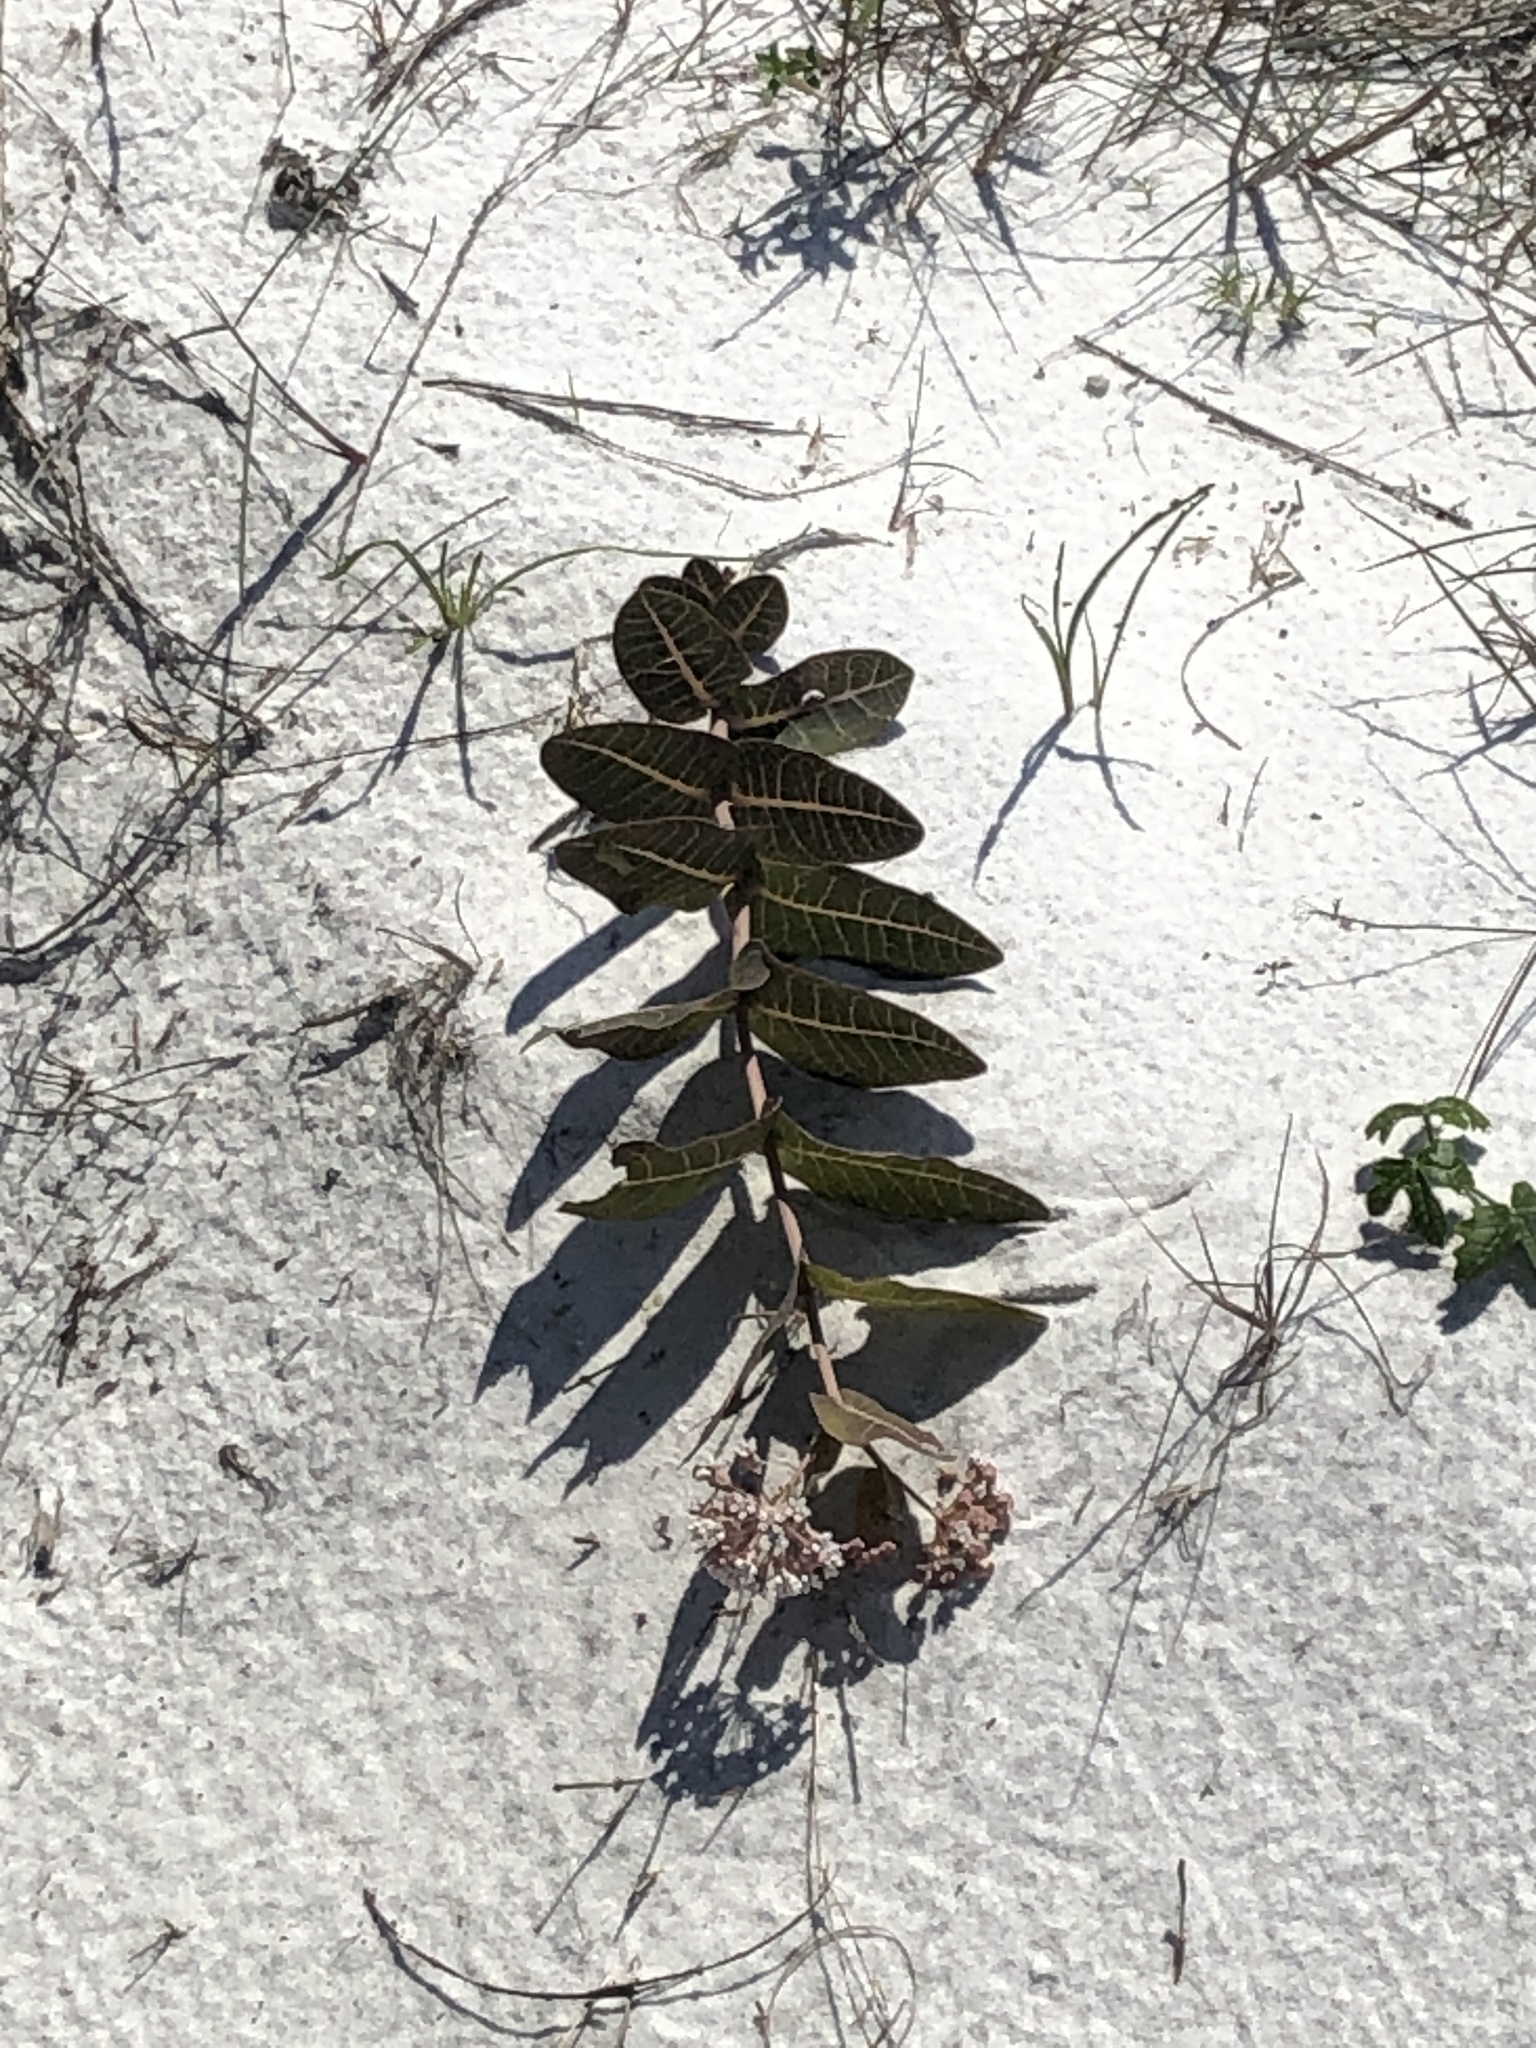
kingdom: Plantae
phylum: Tracheophyta
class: Magnoliopsida
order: Gentianales
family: Apocynaceae
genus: Asclepias
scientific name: Asclepias humistrata
